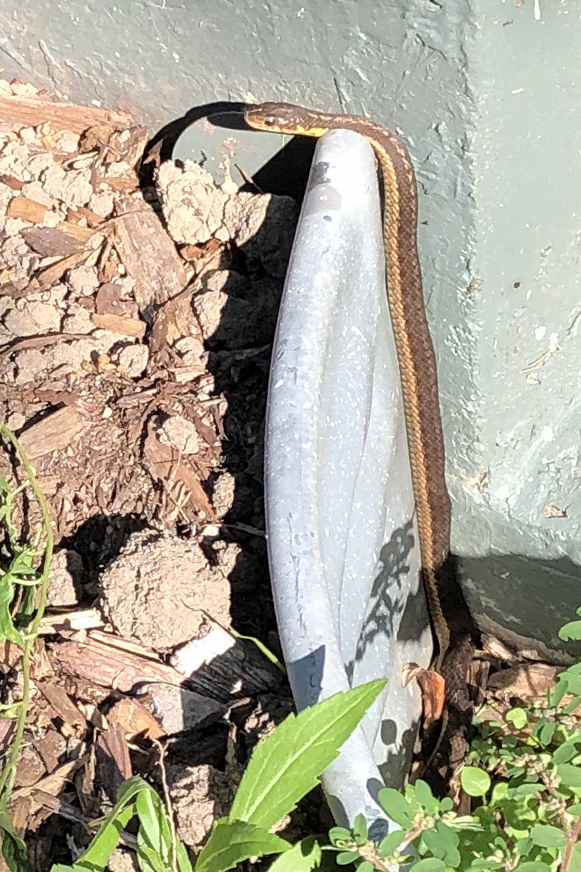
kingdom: Animalia
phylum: Chordata
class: Squamata
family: Colubridae
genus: Thamnophis
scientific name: Thamnophis sirtalis
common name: Common garter snake
